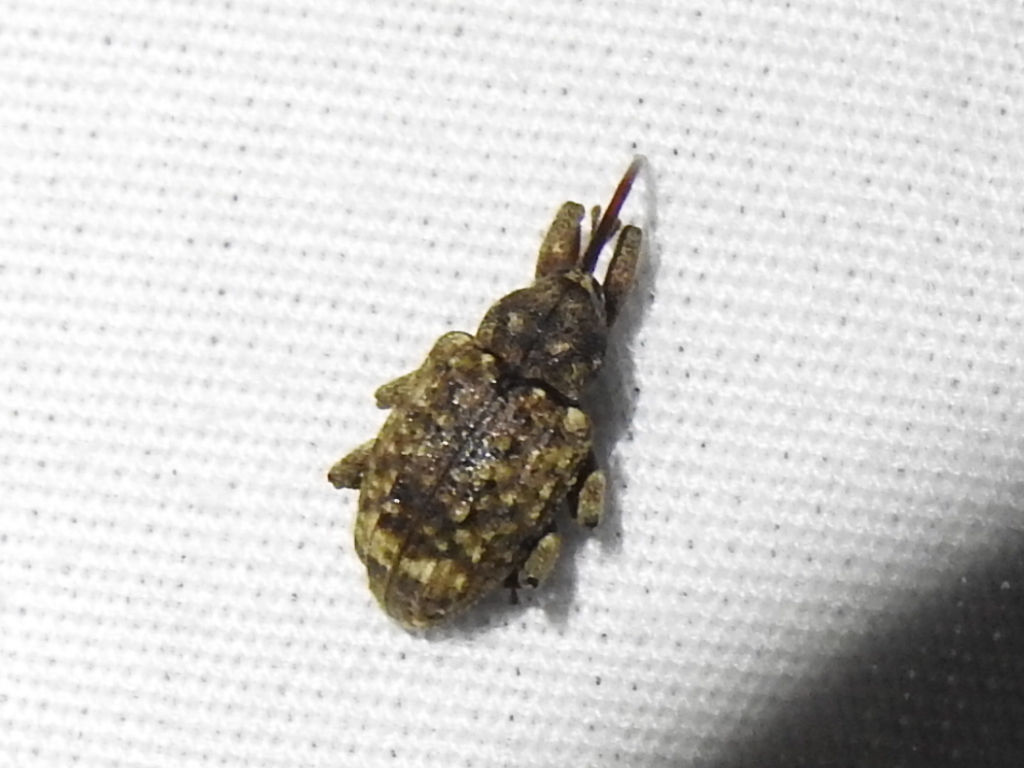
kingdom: Animalia
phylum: Arthropoda
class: Insecta
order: Coleoptera
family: Curculionidae
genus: Conotrachelus
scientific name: Conotrachelus naso
